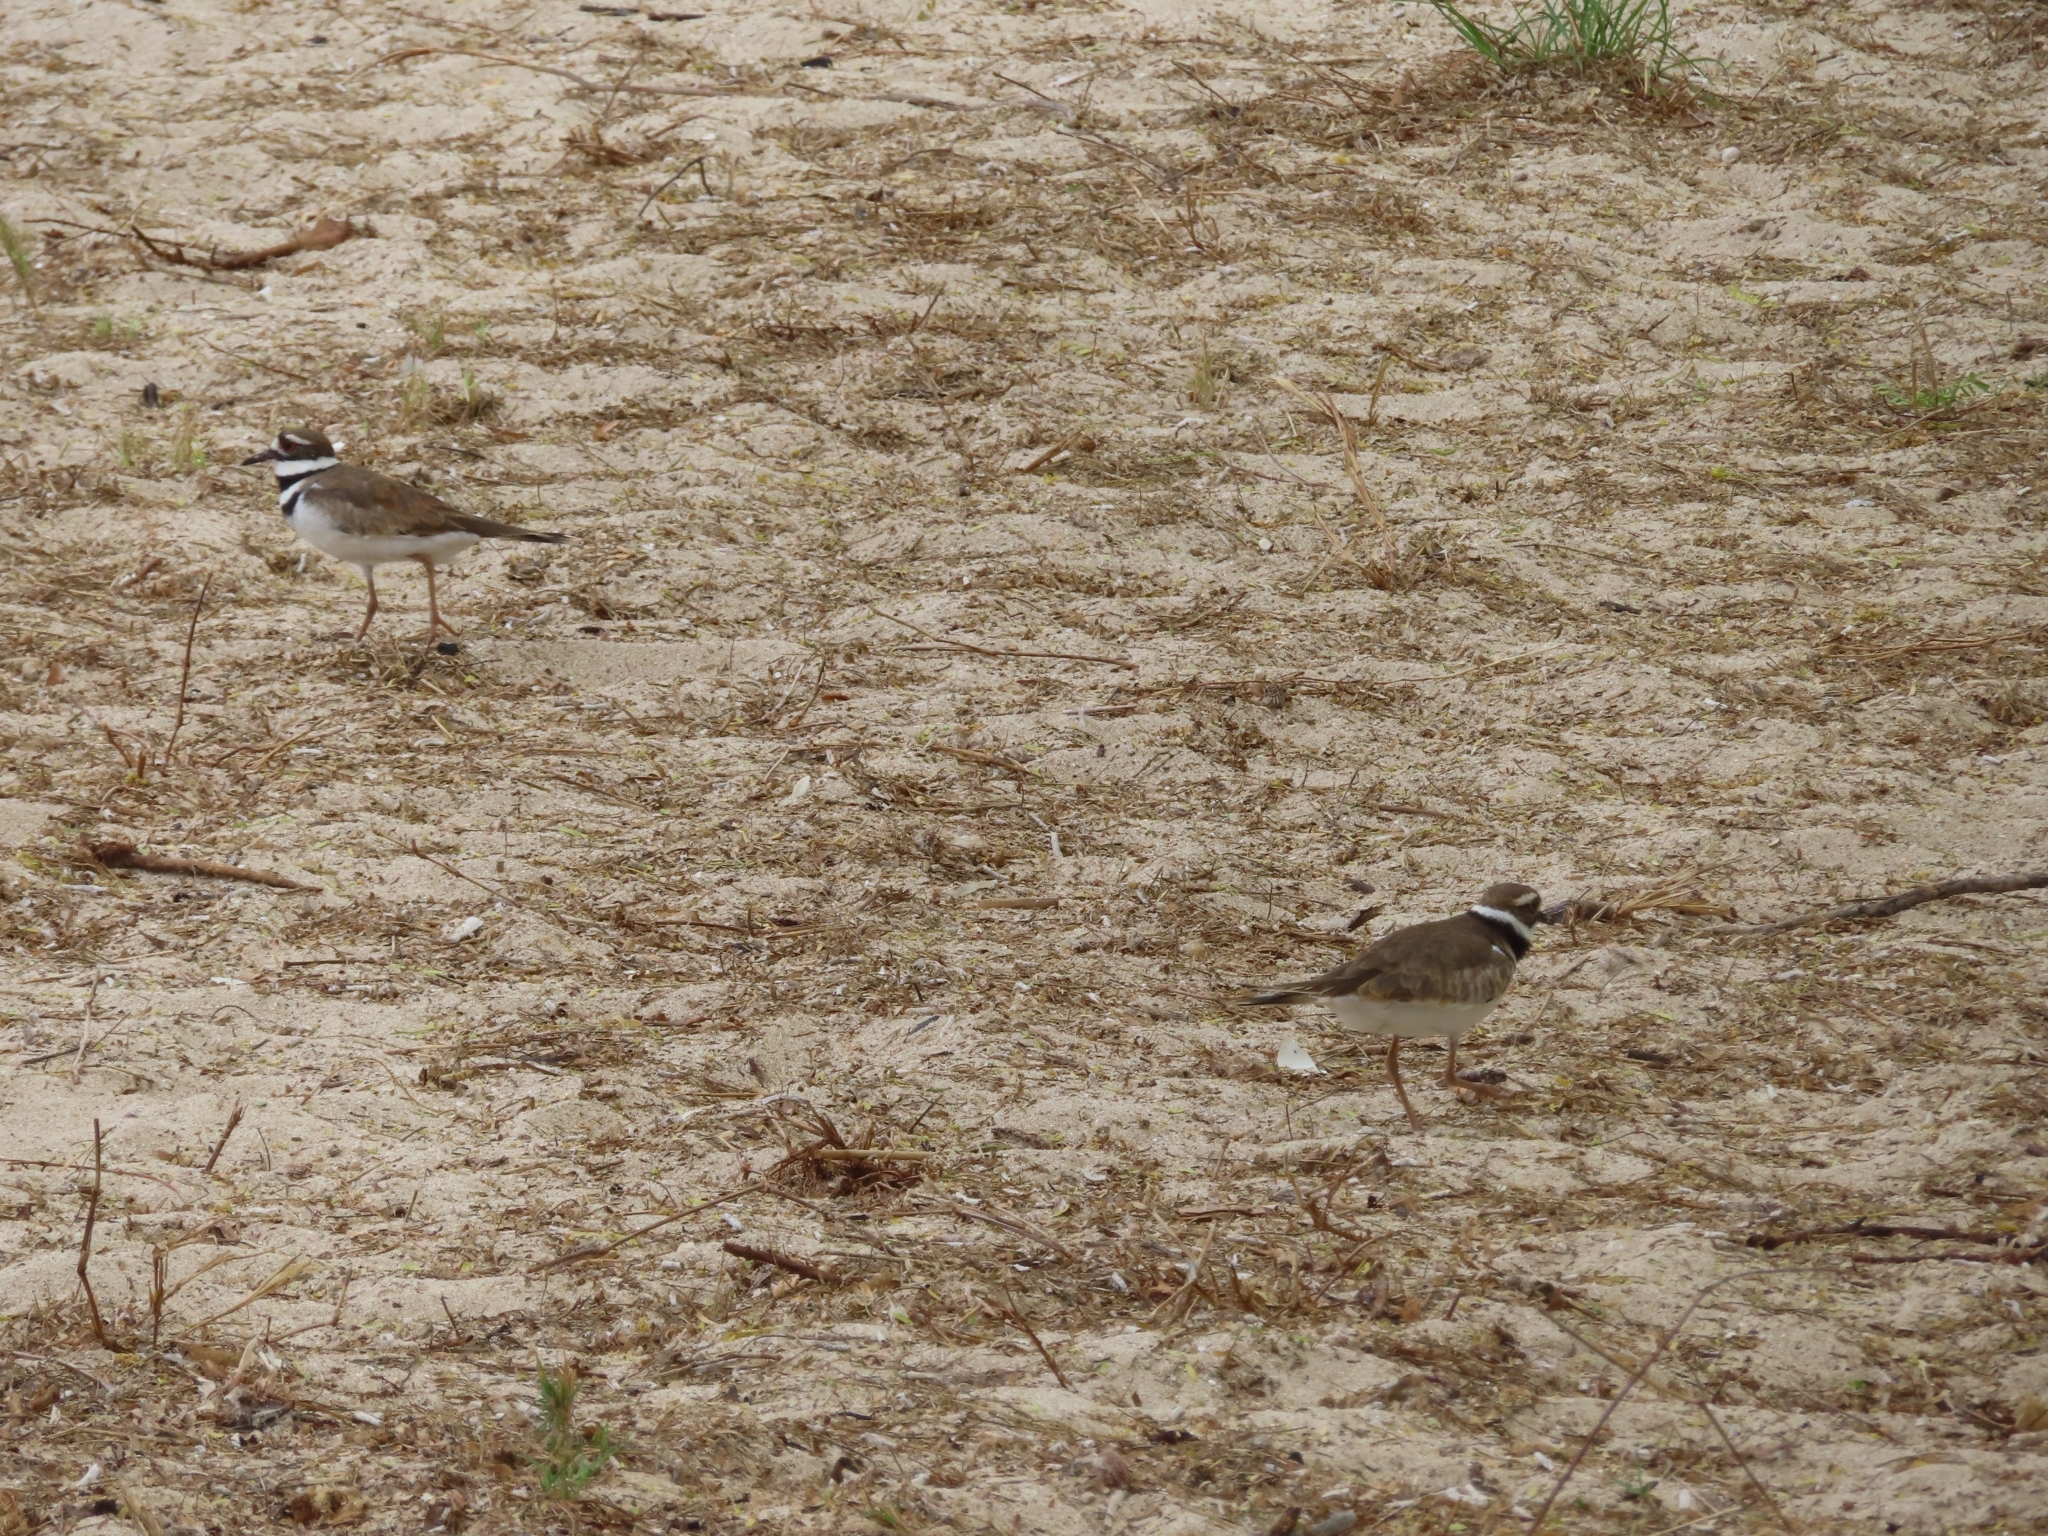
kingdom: Animalia
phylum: Chordata
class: Aves
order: Charadriiformes
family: Charadriidae
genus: Charadrius
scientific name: Charadrius vociferus
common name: Killdeer
